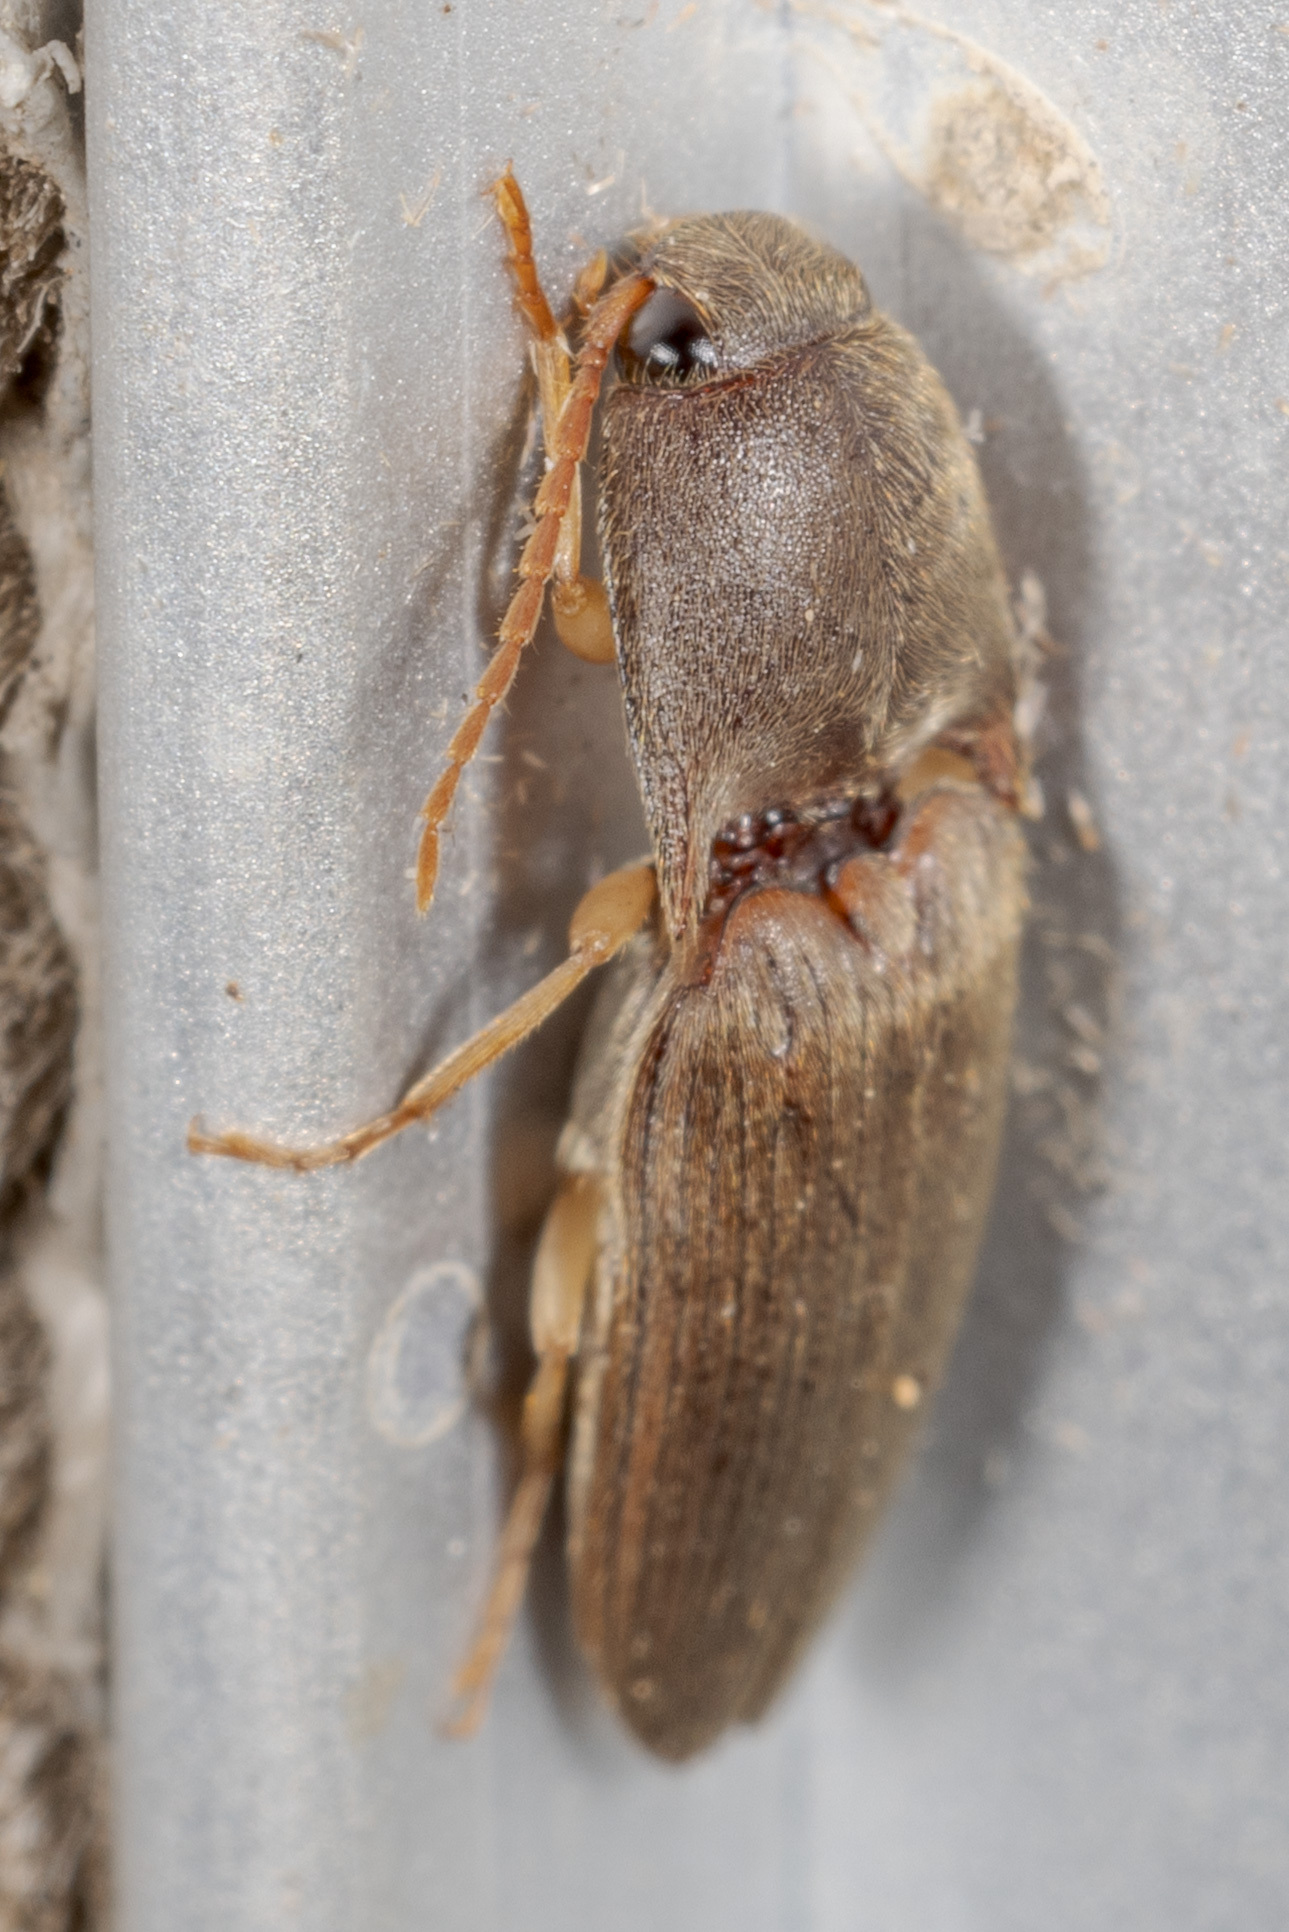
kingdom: Animalia
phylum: Arthropoda
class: Insecta
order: Coleoptera
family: Elateridae
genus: Conoderus
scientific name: Conoderus exsul
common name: Click beetle
